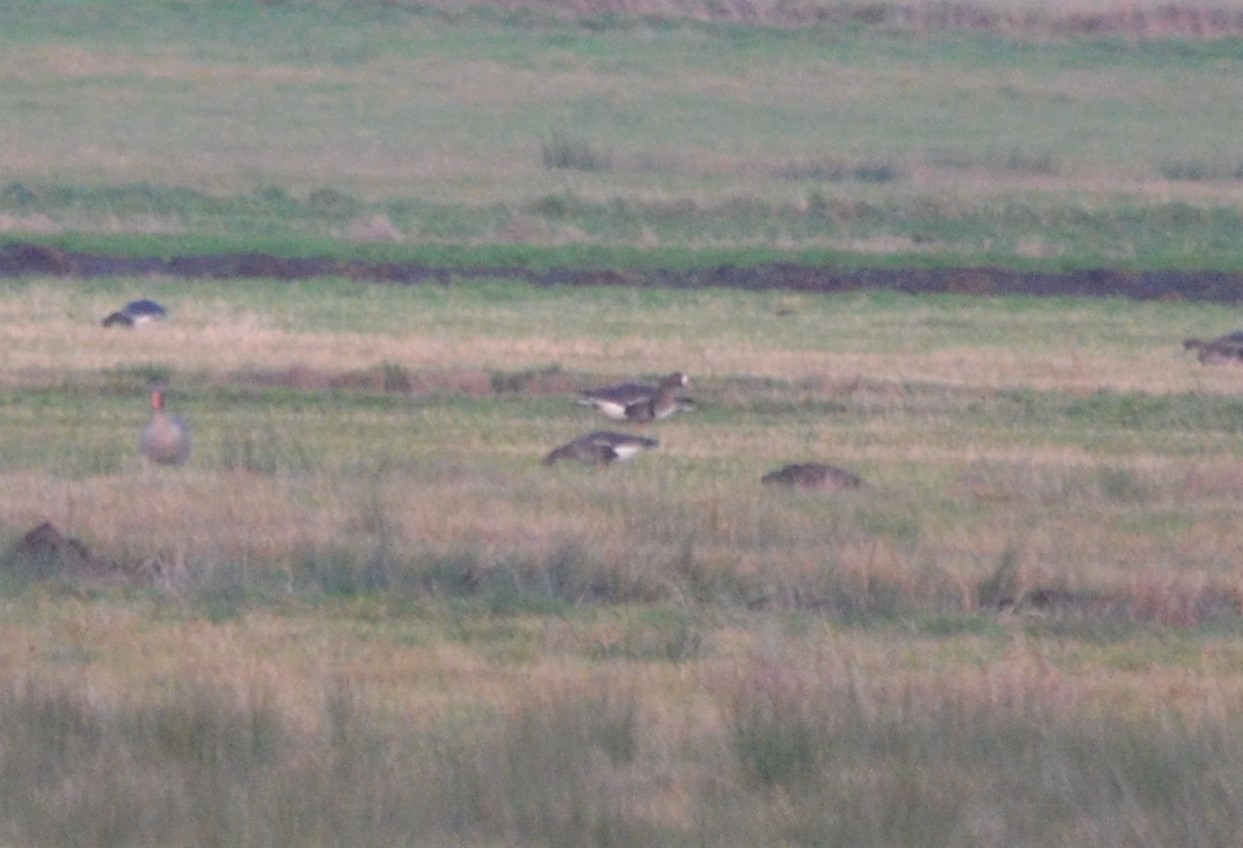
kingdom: Animalia
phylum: Chordata
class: Aves
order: Anseriformes
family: Anatidae
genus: Anser
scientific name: Anser albifrons
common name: Greater white-fronted goose
